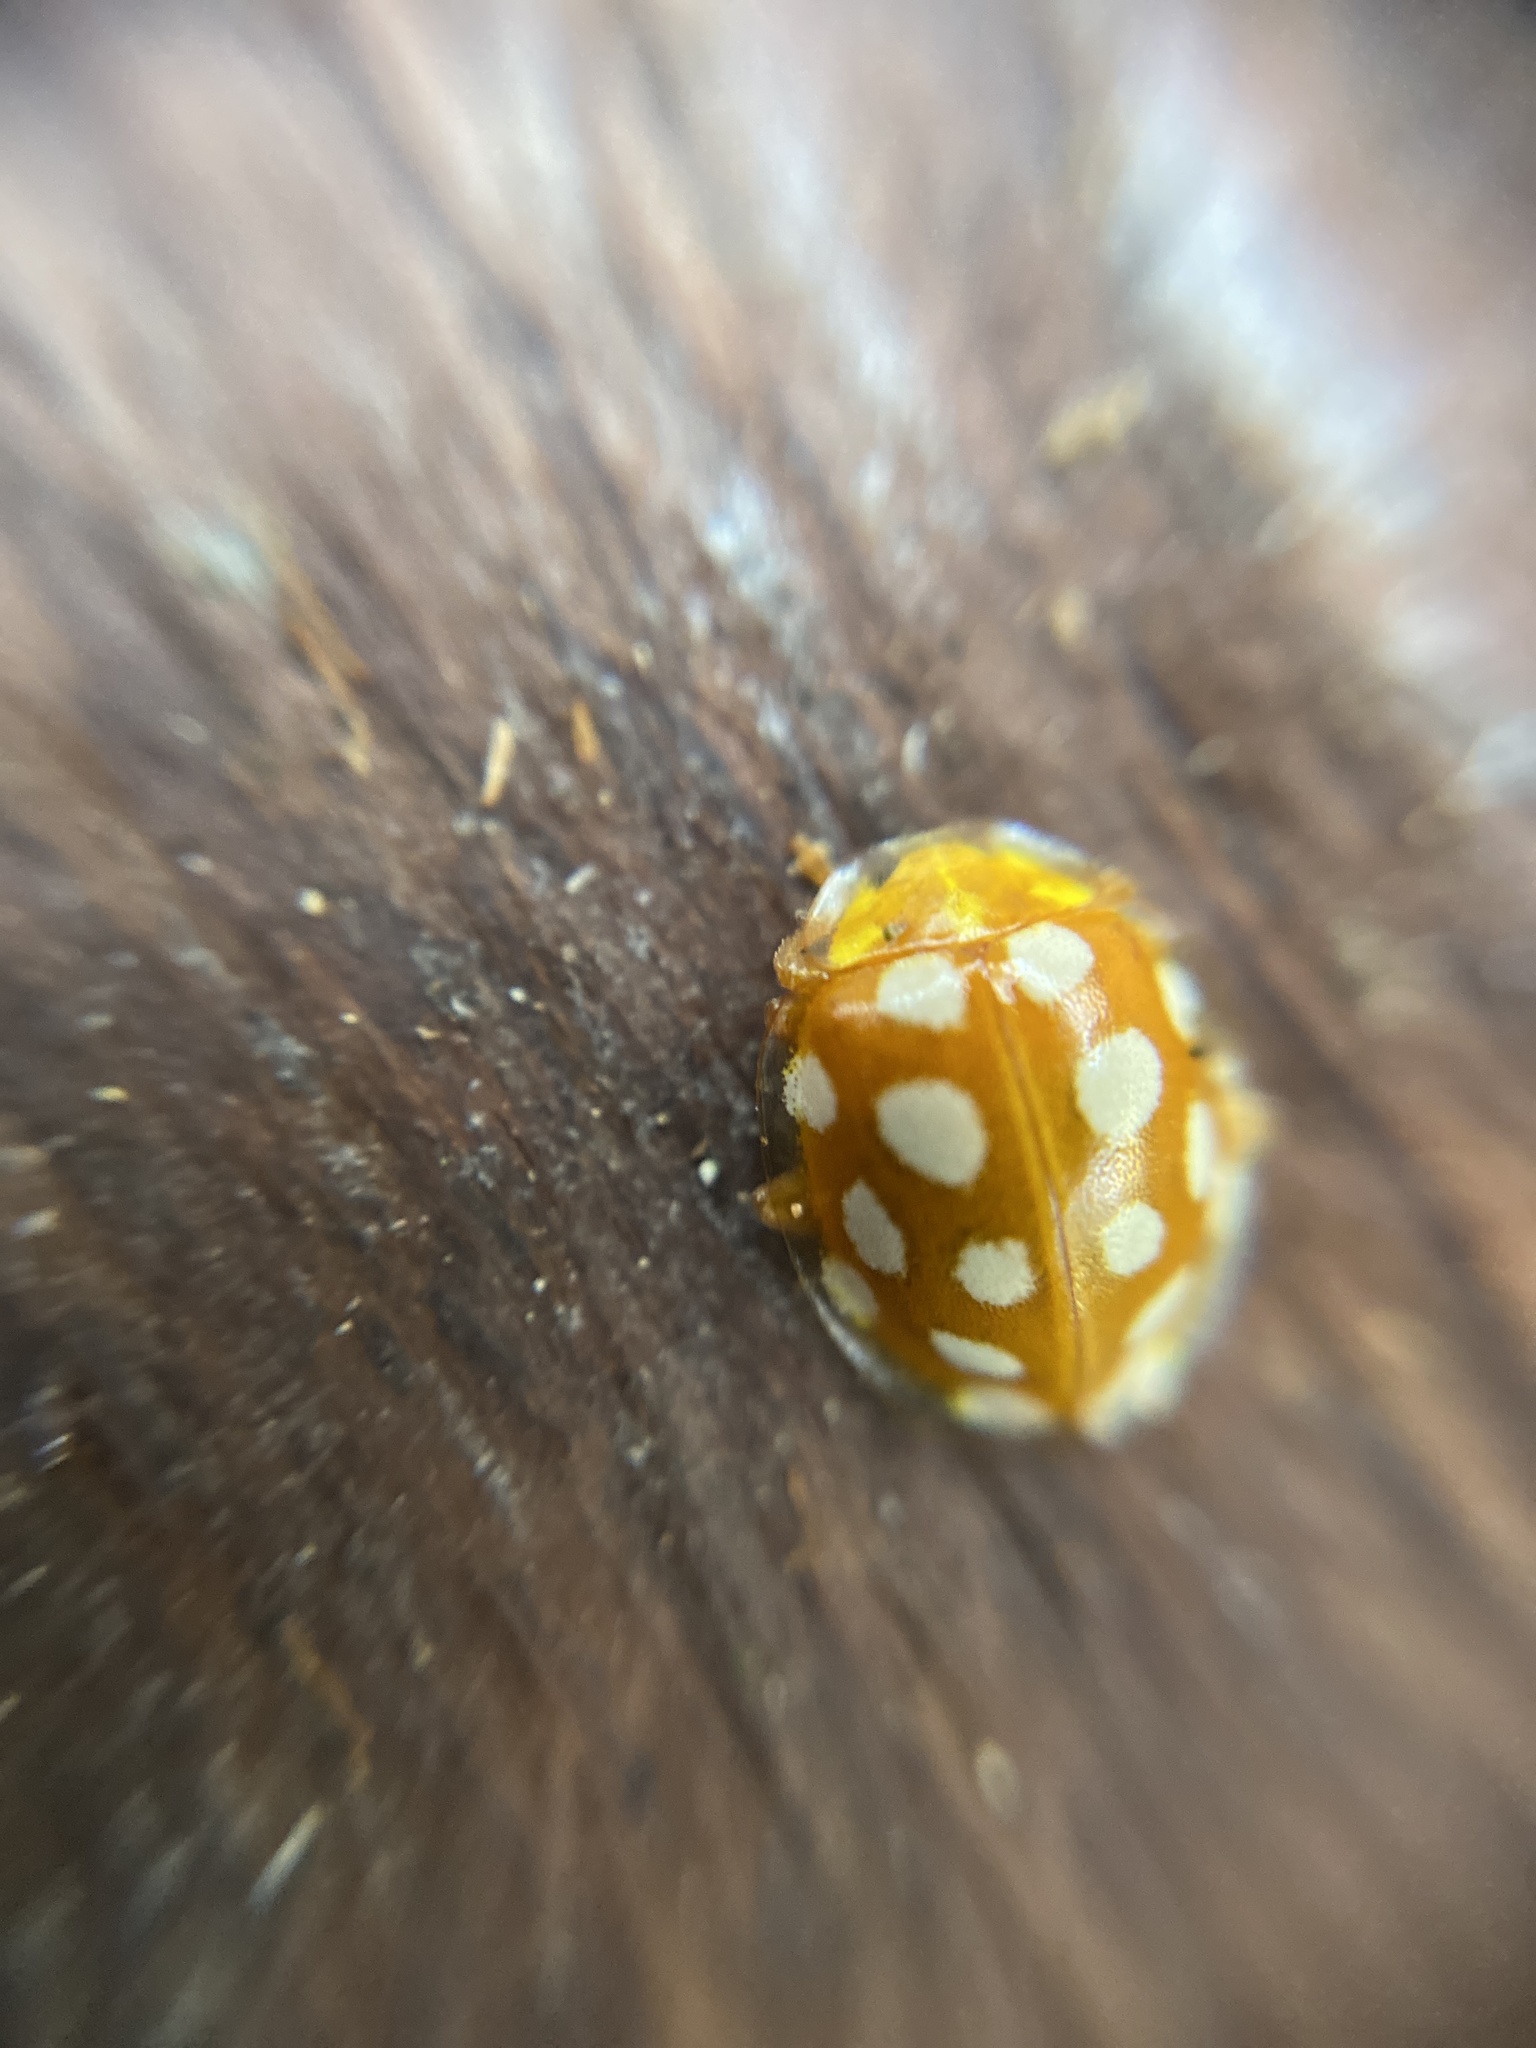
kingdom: Animalia
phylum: Arthropoda
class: Insecta
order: Coleoptera
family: Coccinellidae
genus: Halyzia
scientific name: Halyzia sedecimguttata
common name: Orange ladybird
